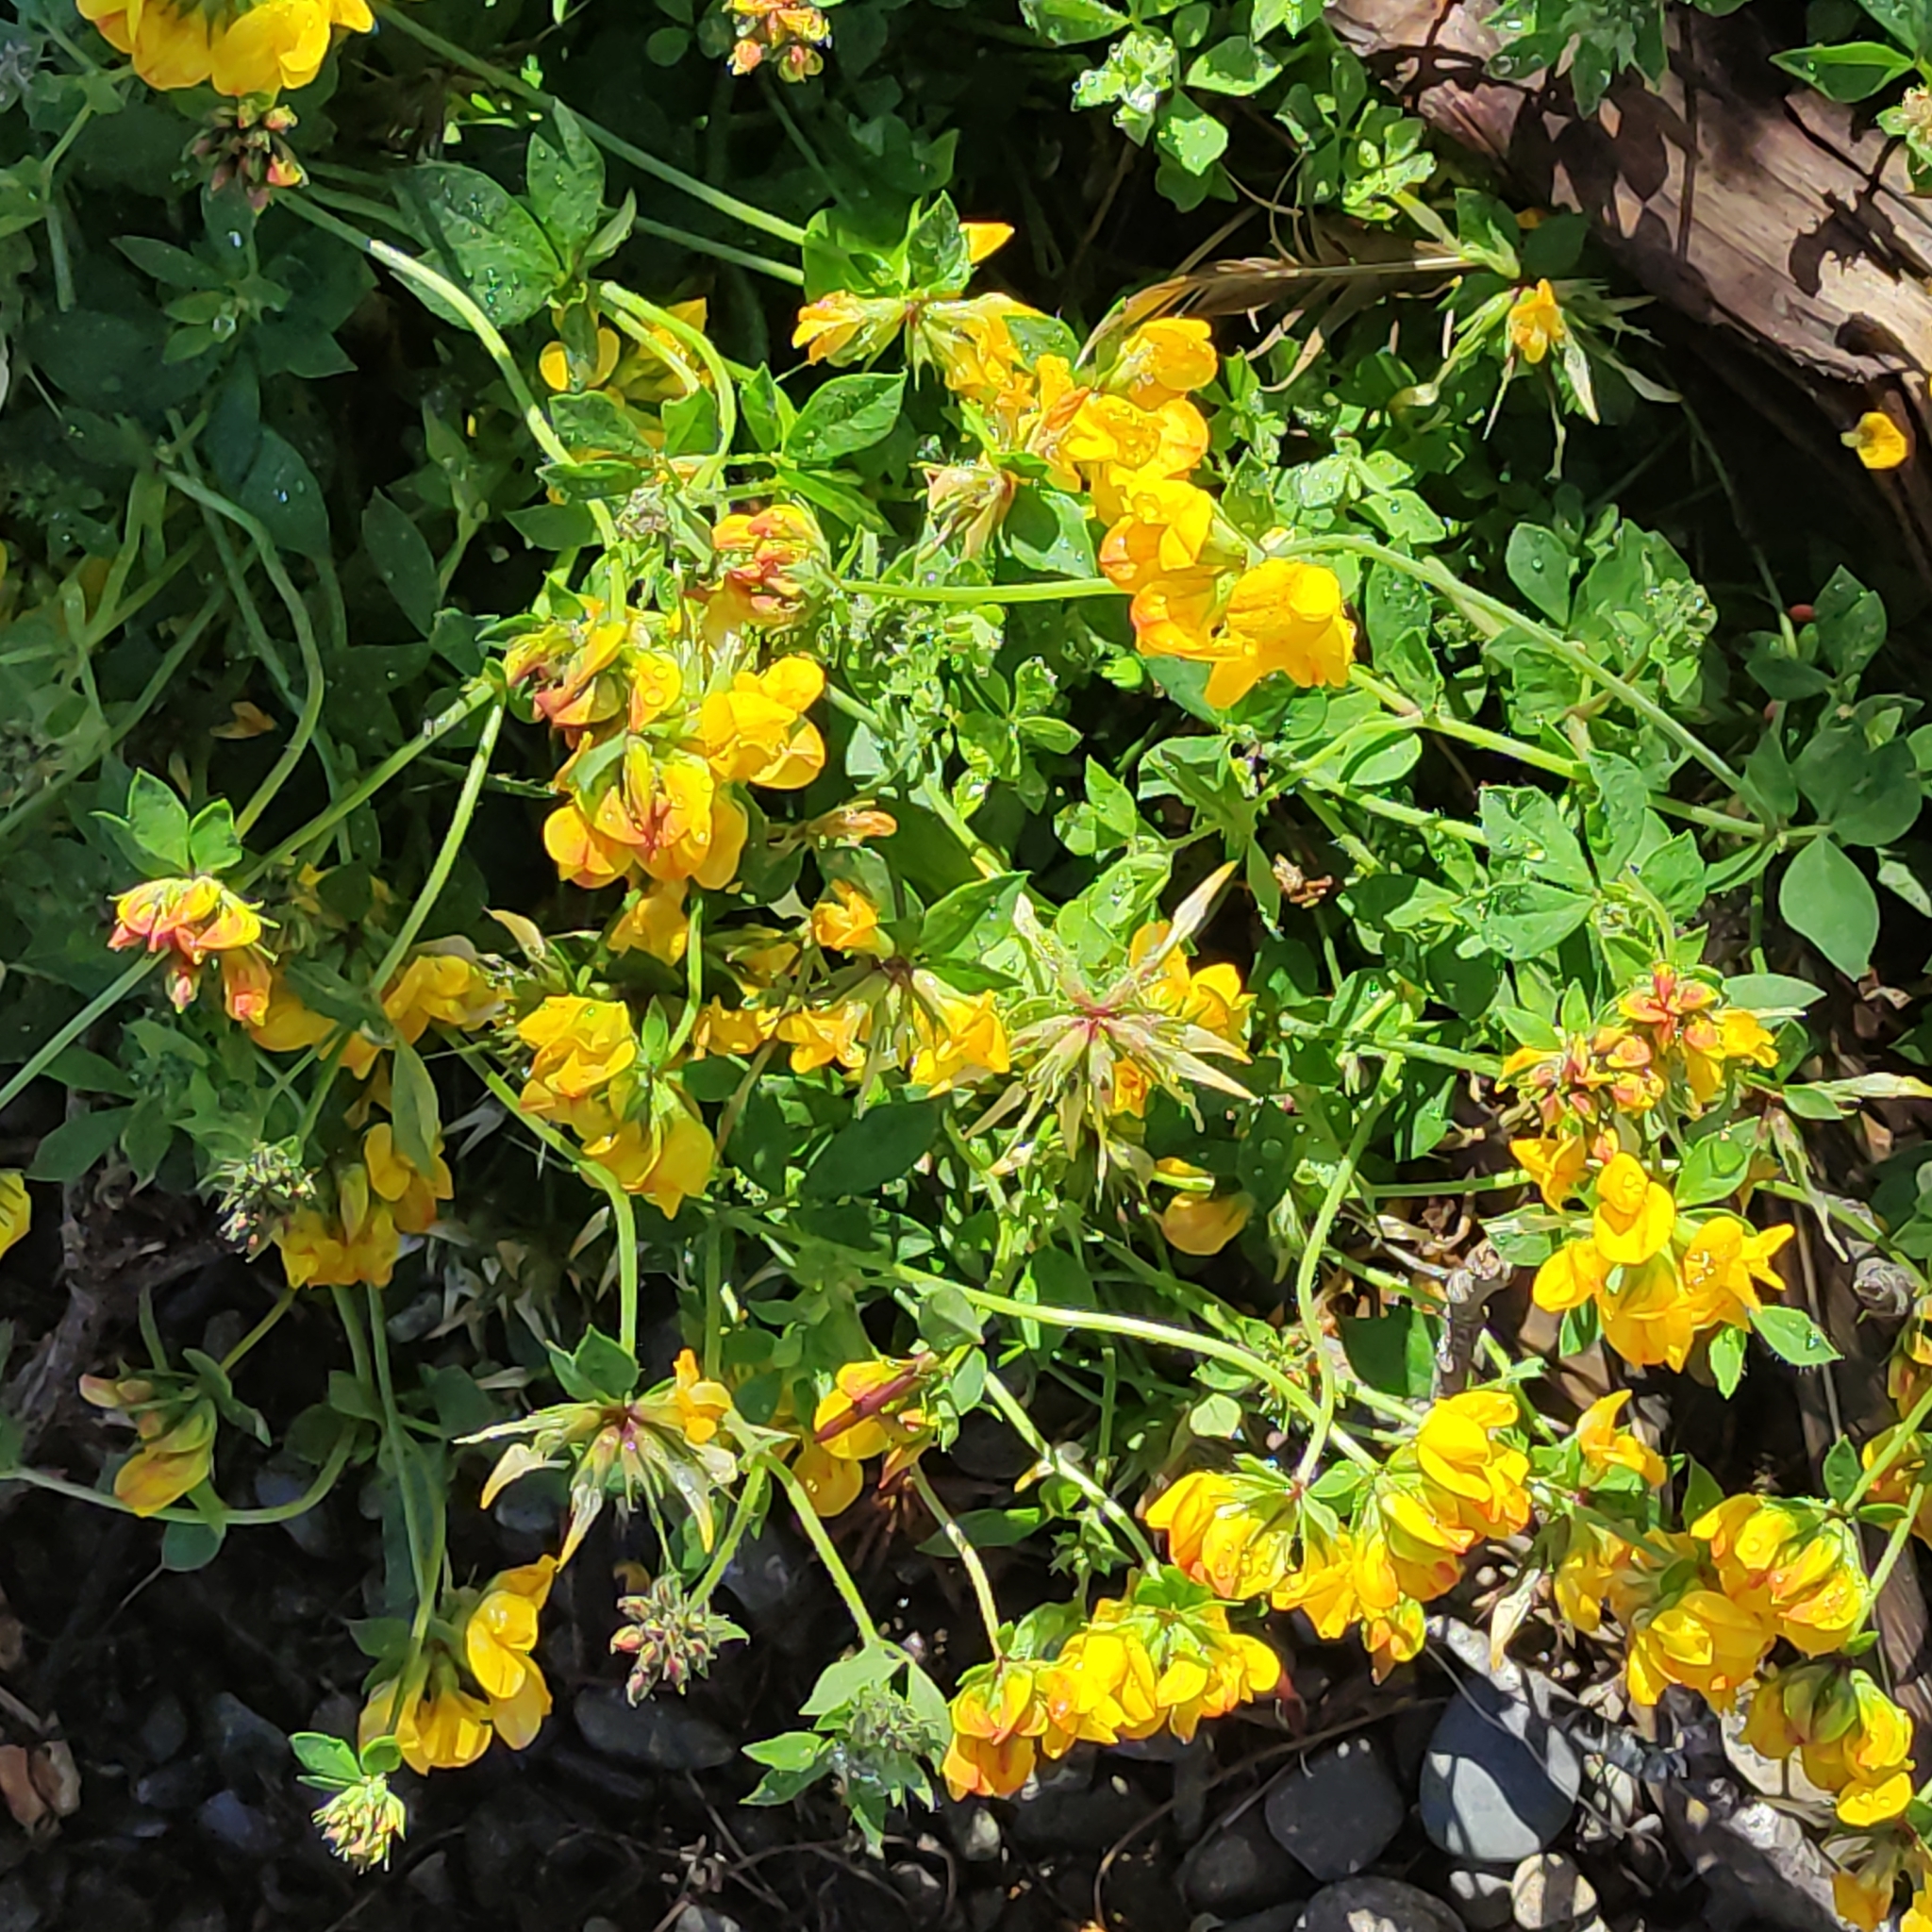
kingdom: Plantae
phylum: Tracheophyta
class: Magnoliopsida
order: Fabales
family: Fabaceae
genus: Lotus
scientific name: Lotus pedunculatus
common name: Greater birdsfoot-trefoil
